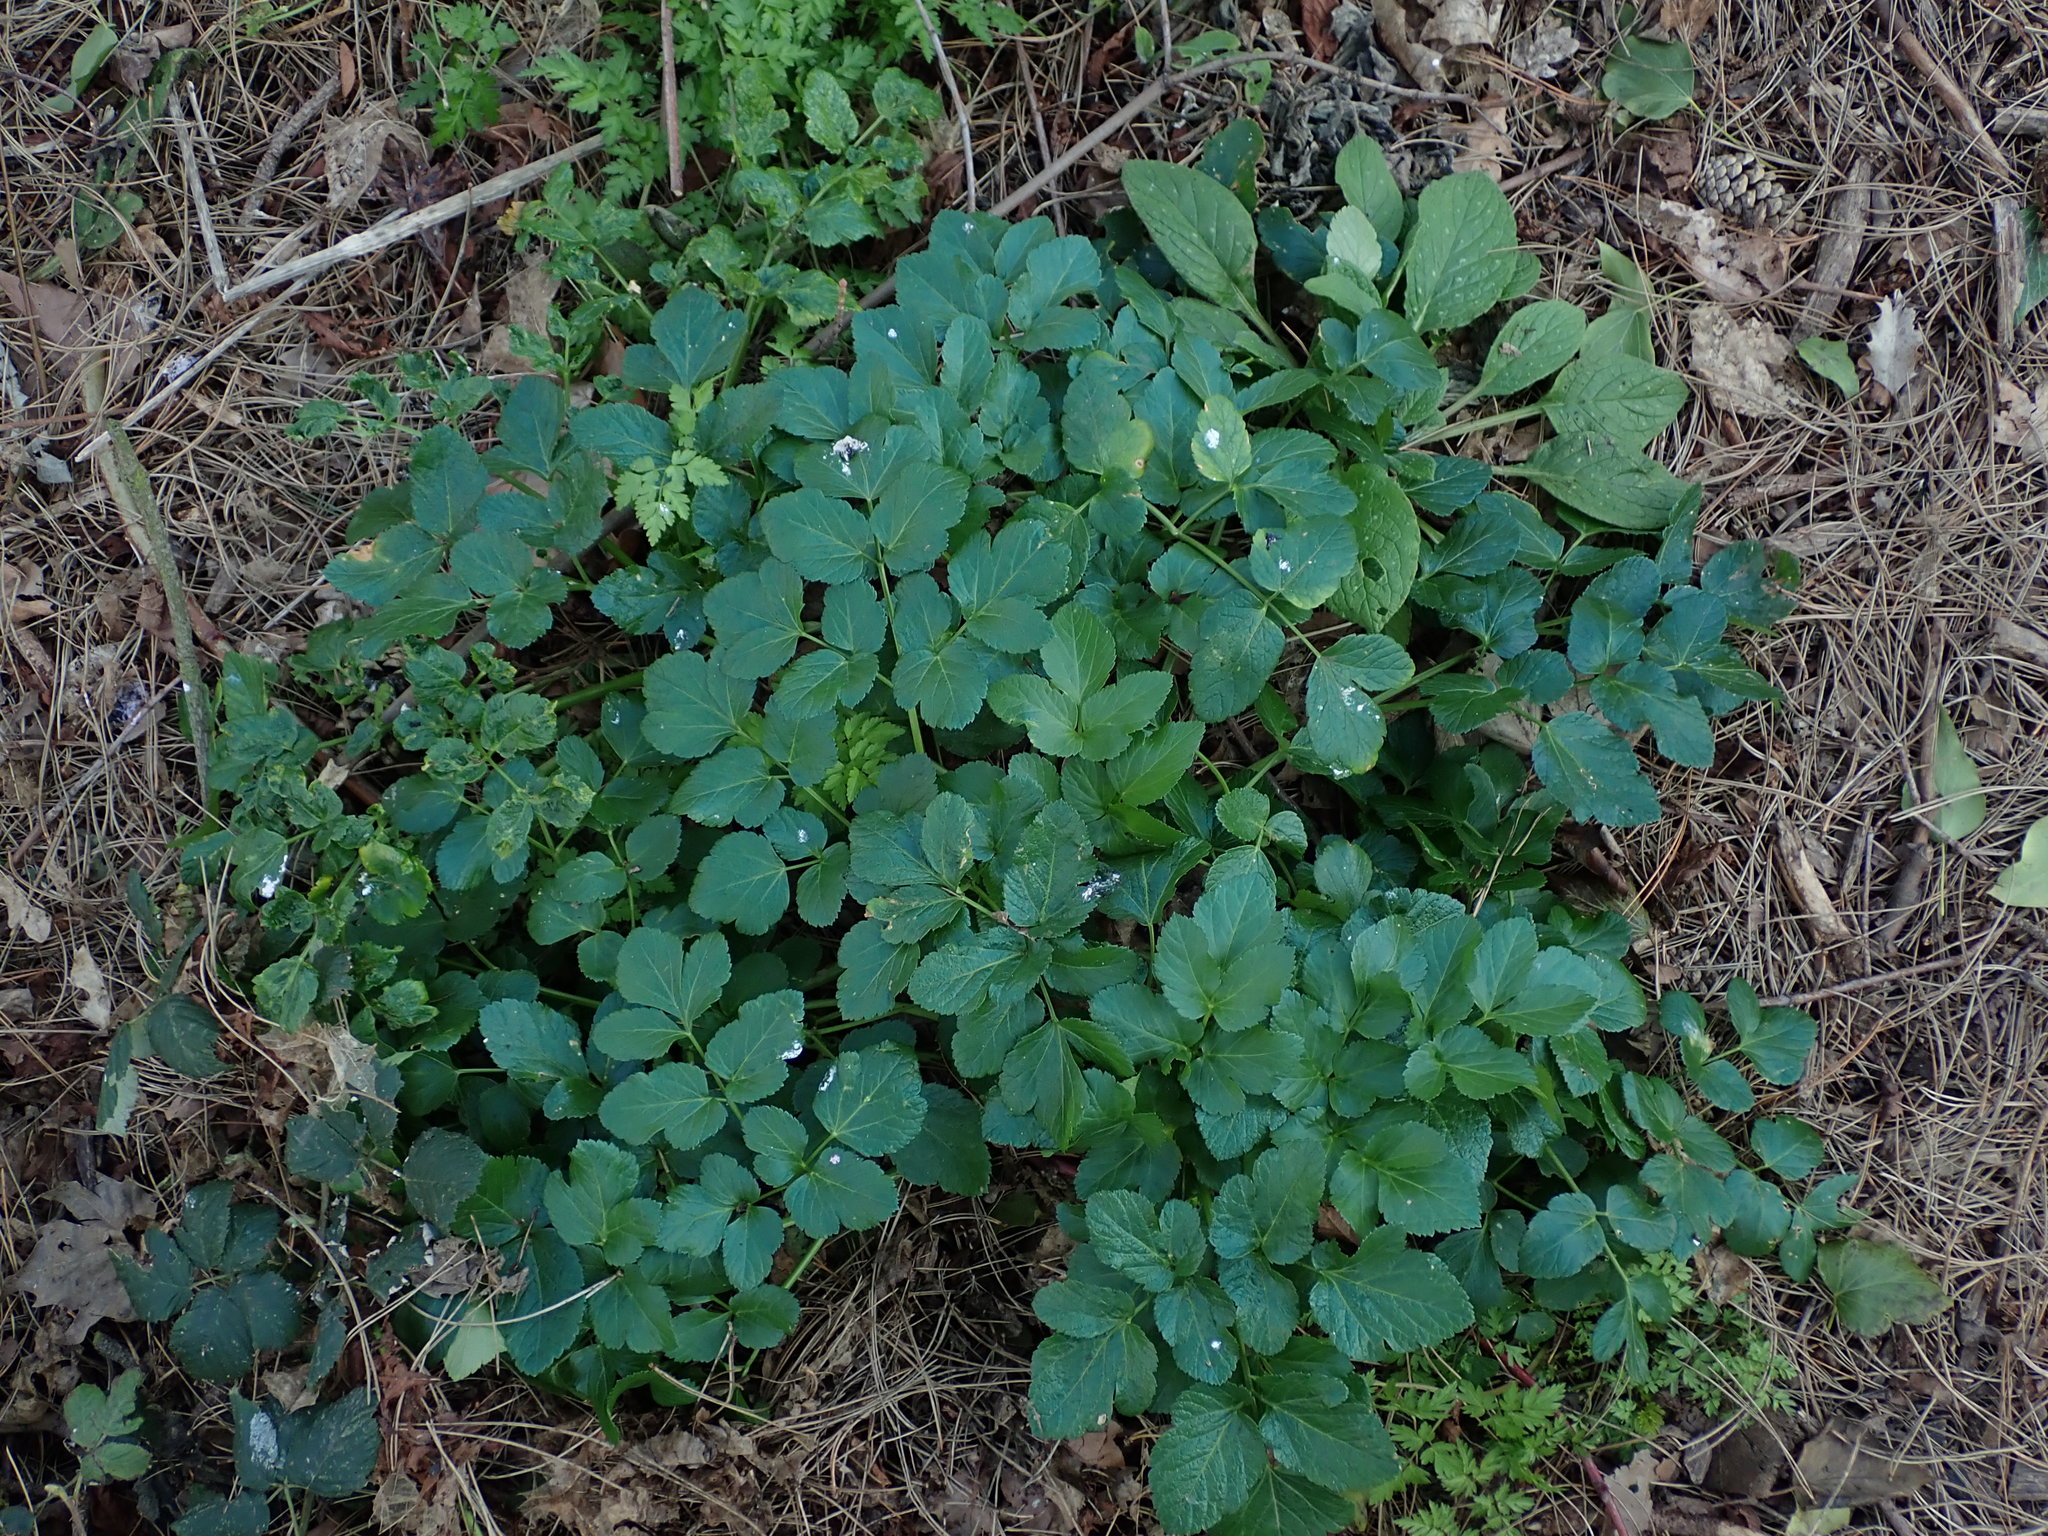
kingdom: Plantae
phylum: Tracheophyta
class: Magnoliopsida
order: Apiales
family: Apiaceae
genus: Smyrnium
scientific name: Smyrnium olusatrum
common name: Alexanders
